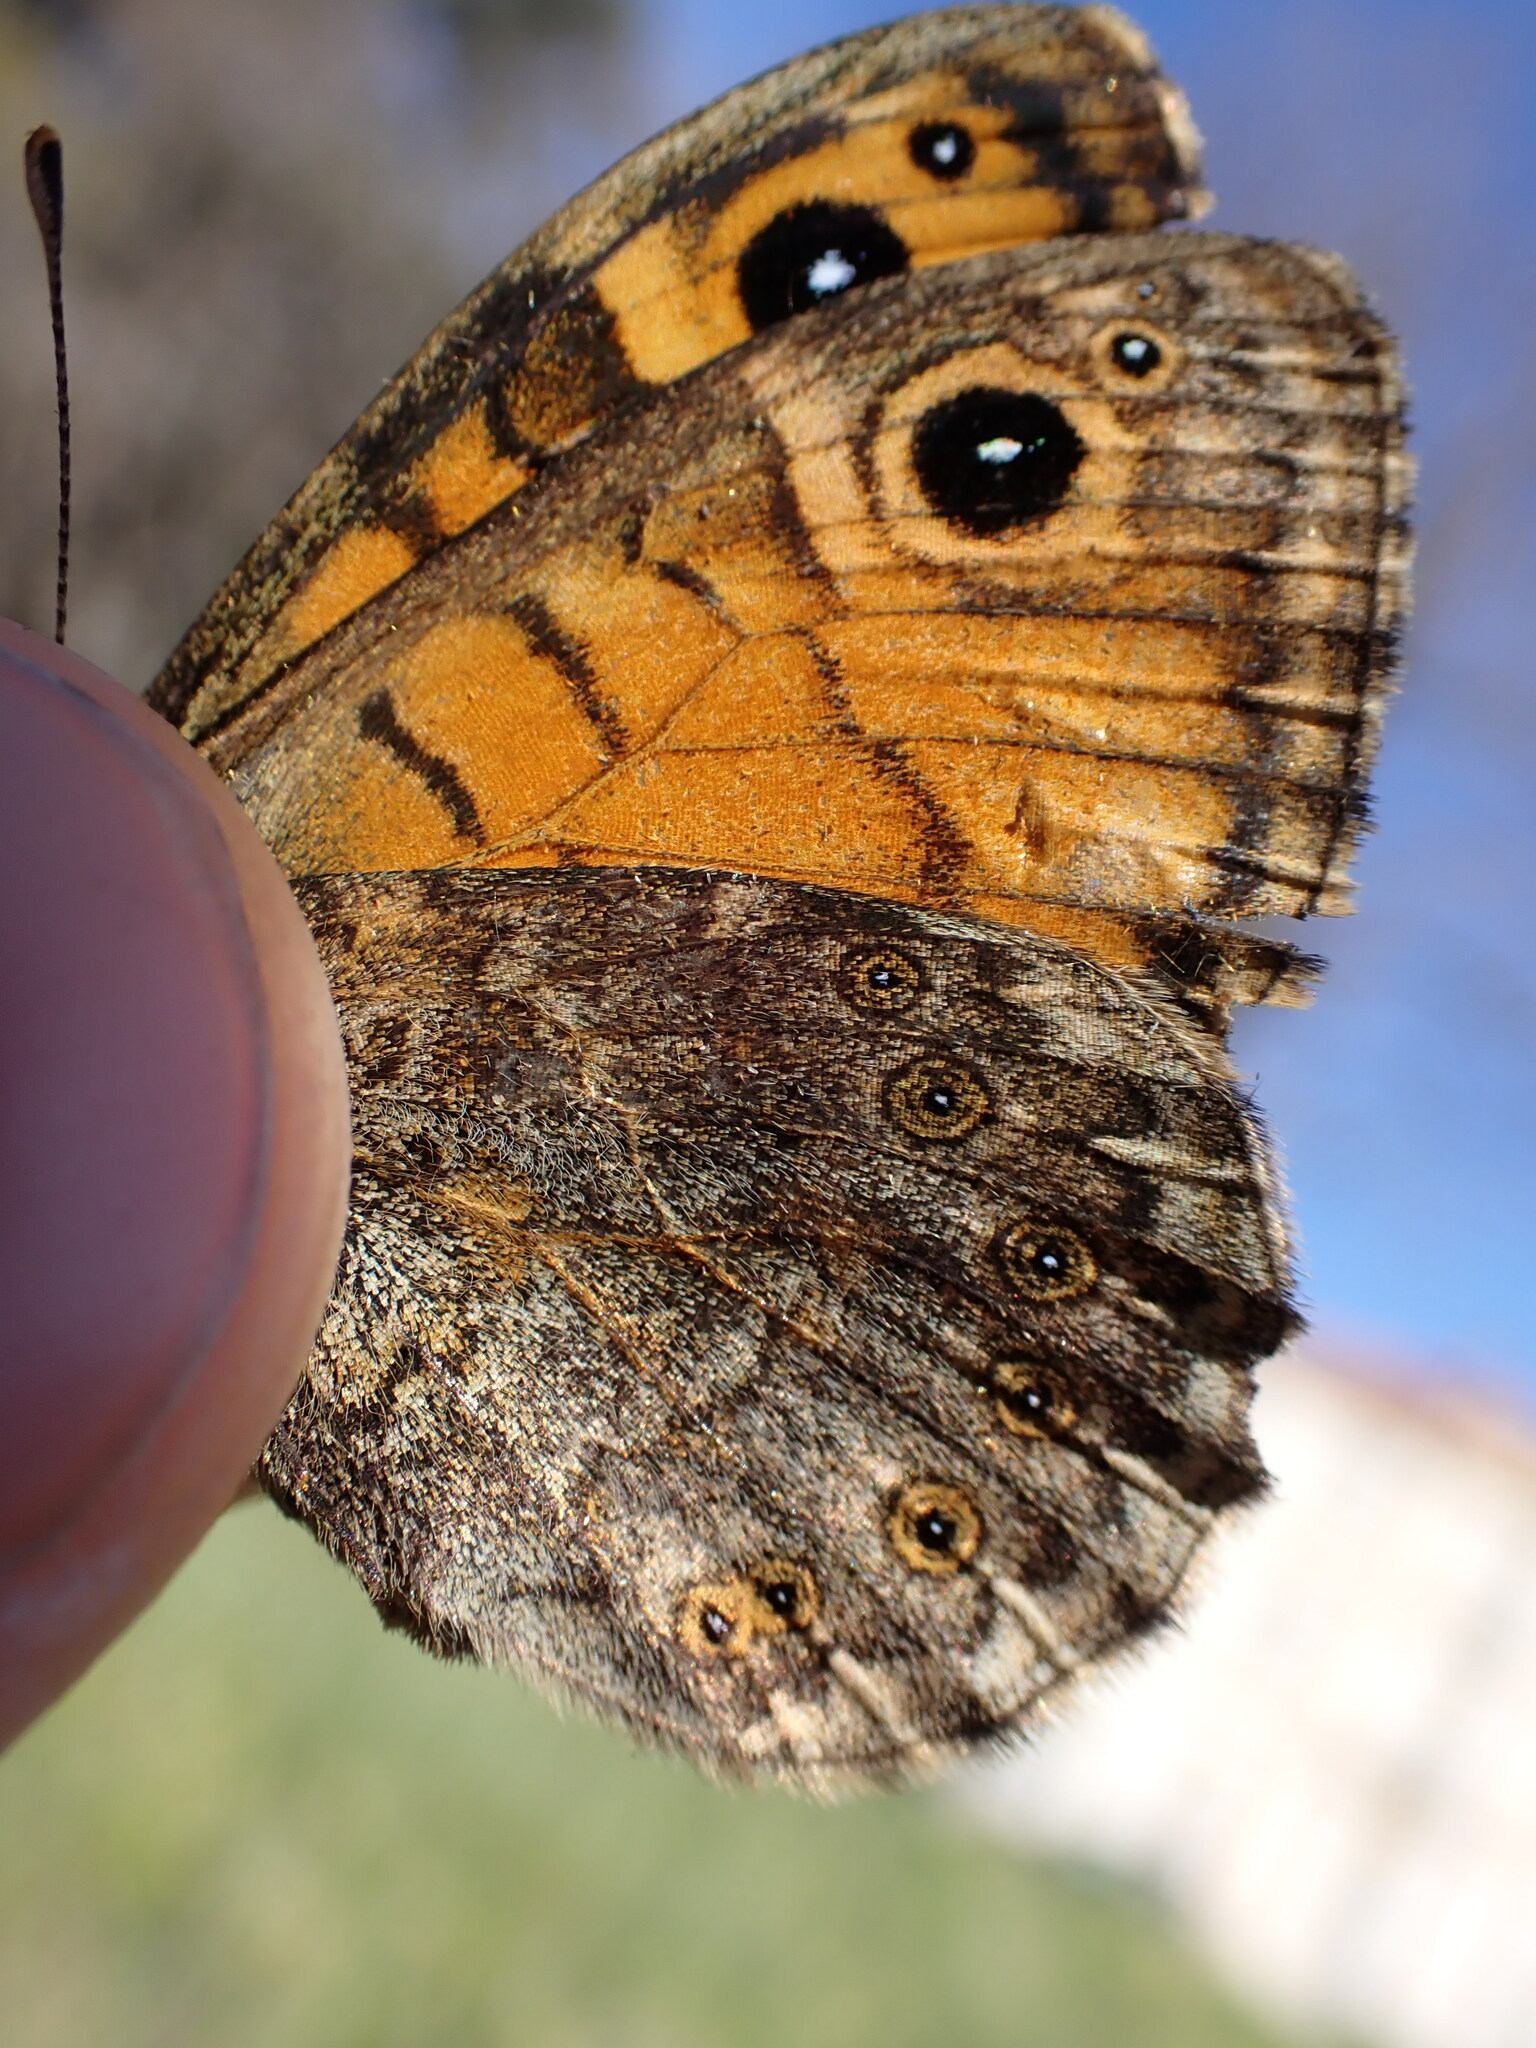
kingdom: Animalia
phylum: Arthropoda
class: Insecta
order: Lepidoptera
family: Nymphalidae
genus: Pararge
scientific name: Pararge Lasiommata megera
